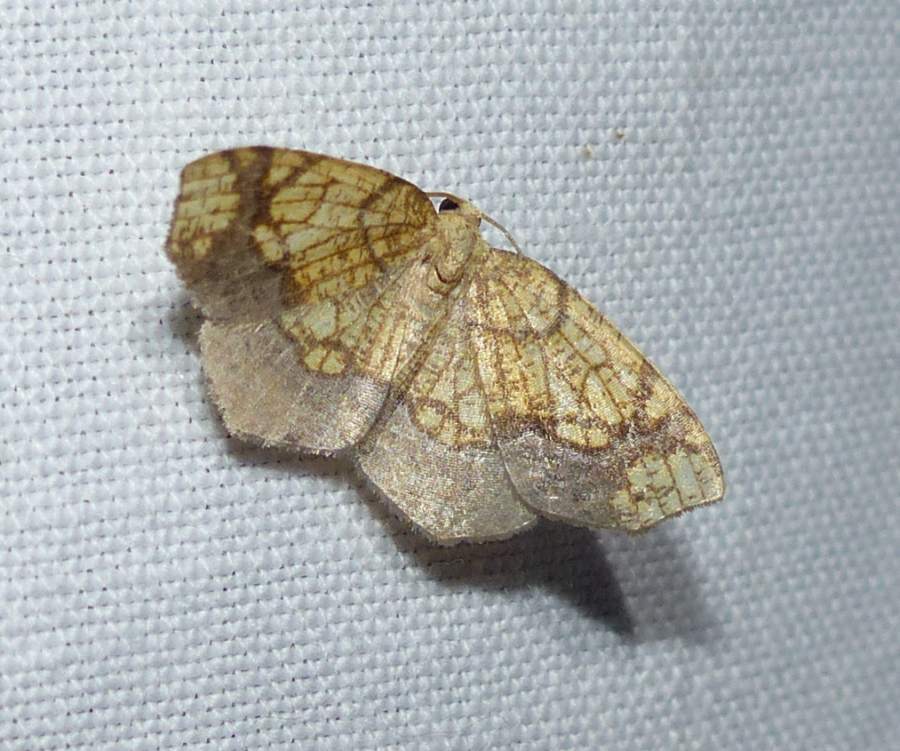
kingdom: Animalia
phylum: Arthropoda
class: Insecta
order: Lepidoptera
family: Geometridae
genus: Nematocampa
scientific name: Nematocampa resistaria
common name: Horned spanworm moth
